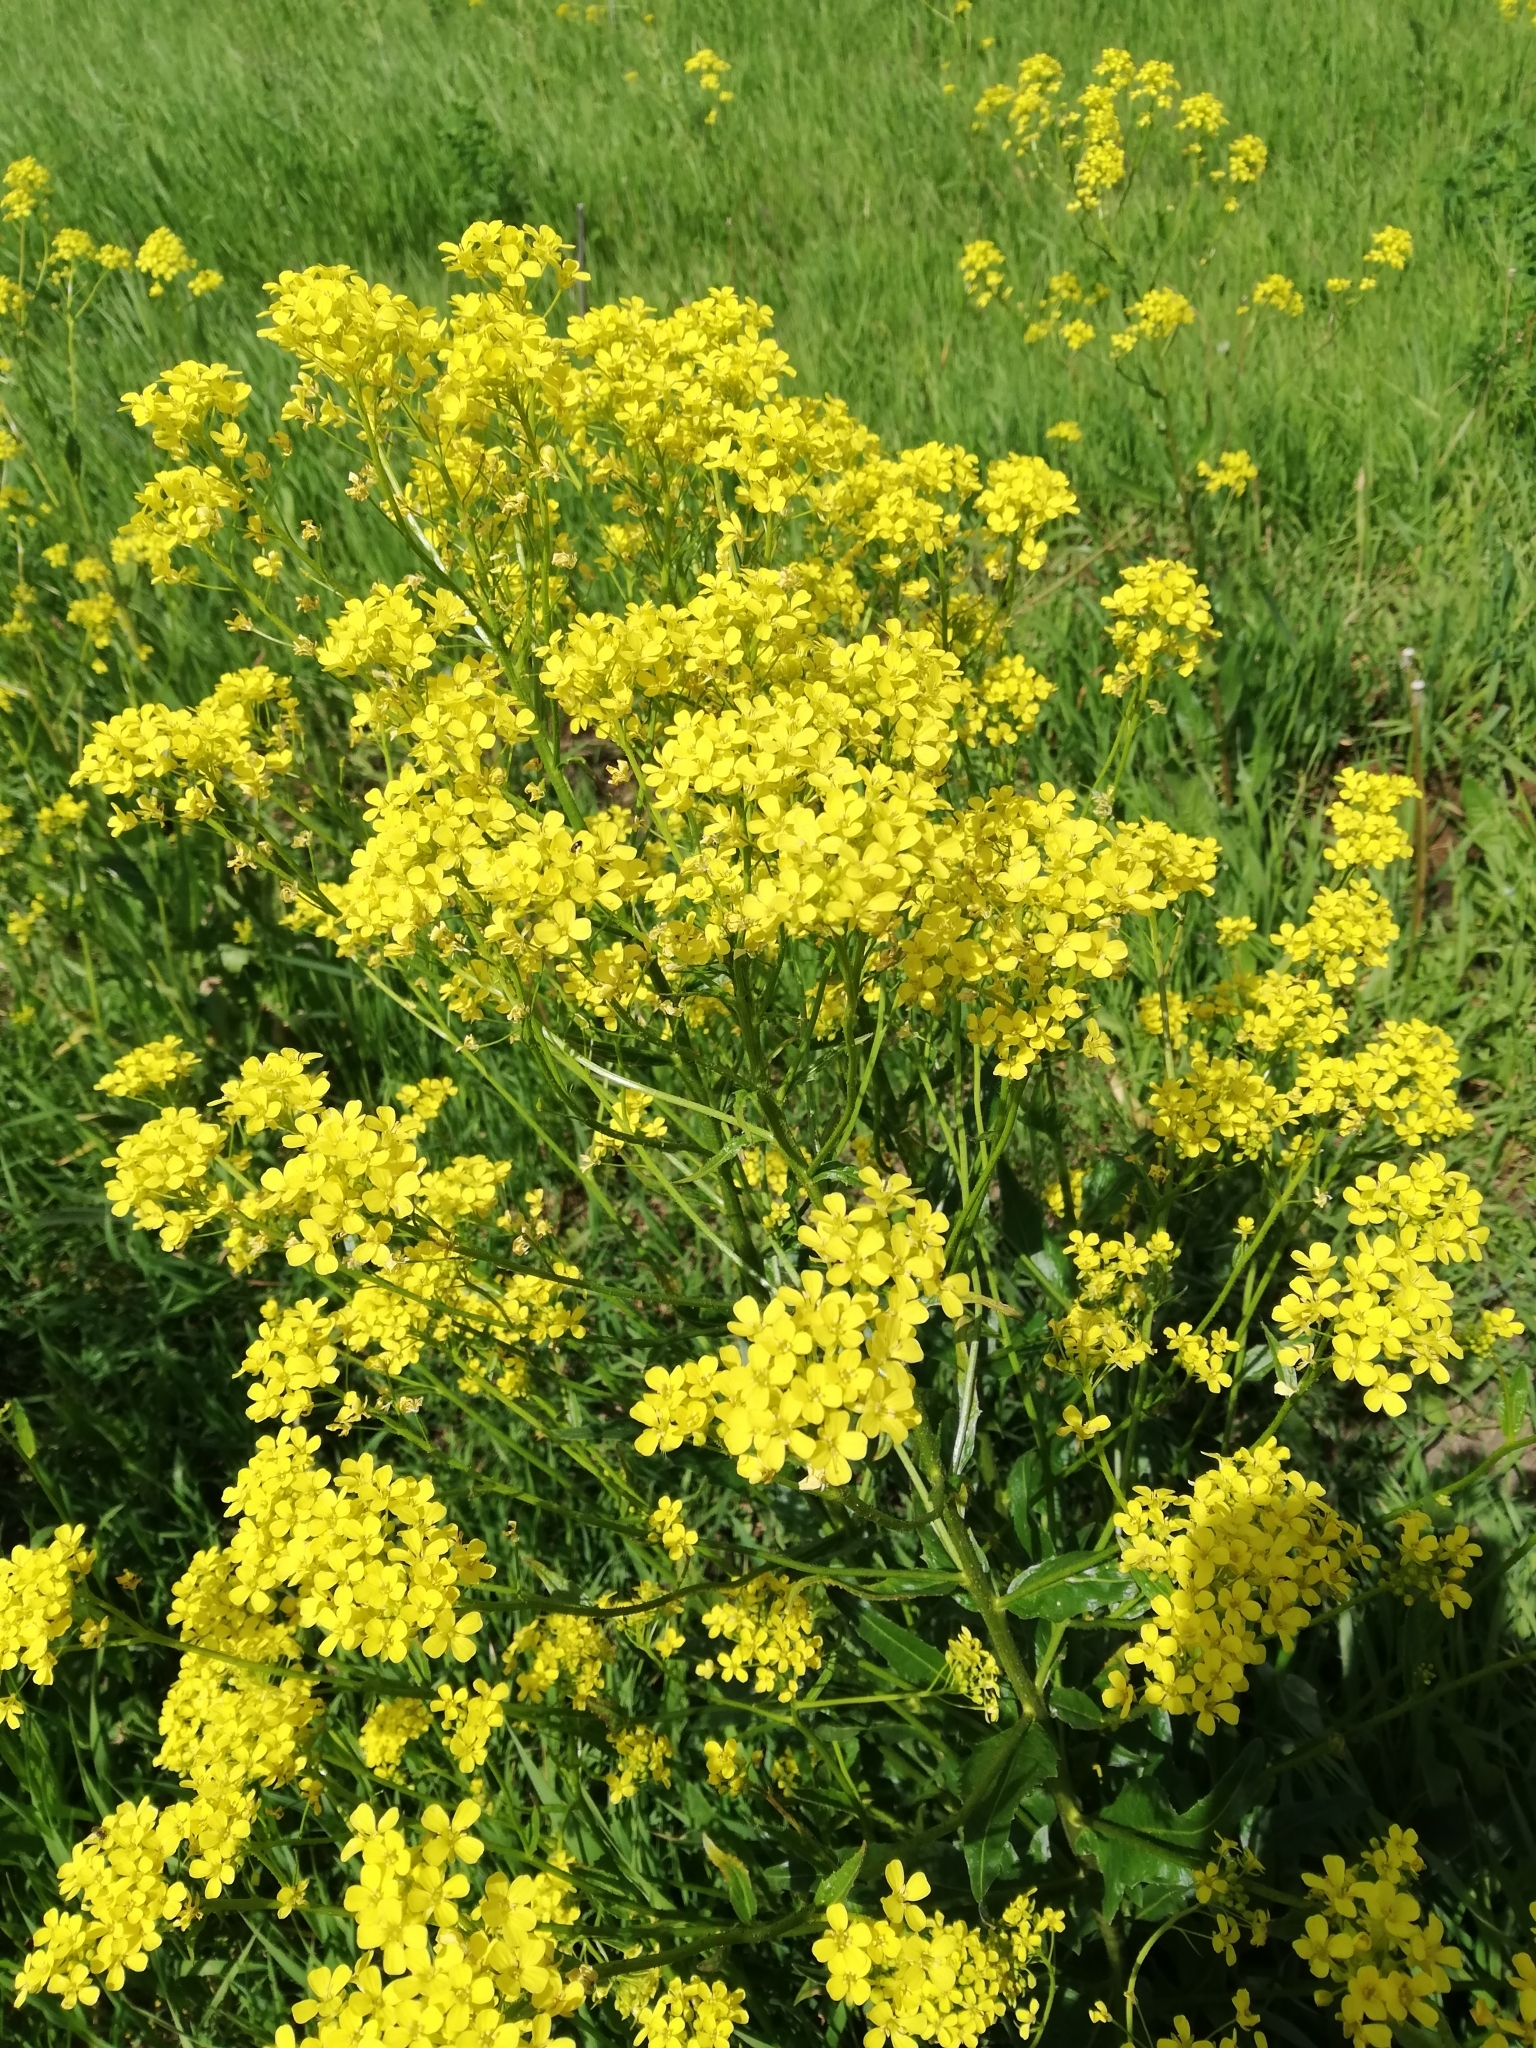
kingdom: Plantae
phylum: Tracheophyta
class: Magnoliopsida
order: Brassicales
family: Brassicaceae
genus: Bunias
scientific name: Bunias orientalis
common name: Warty-cabbage
